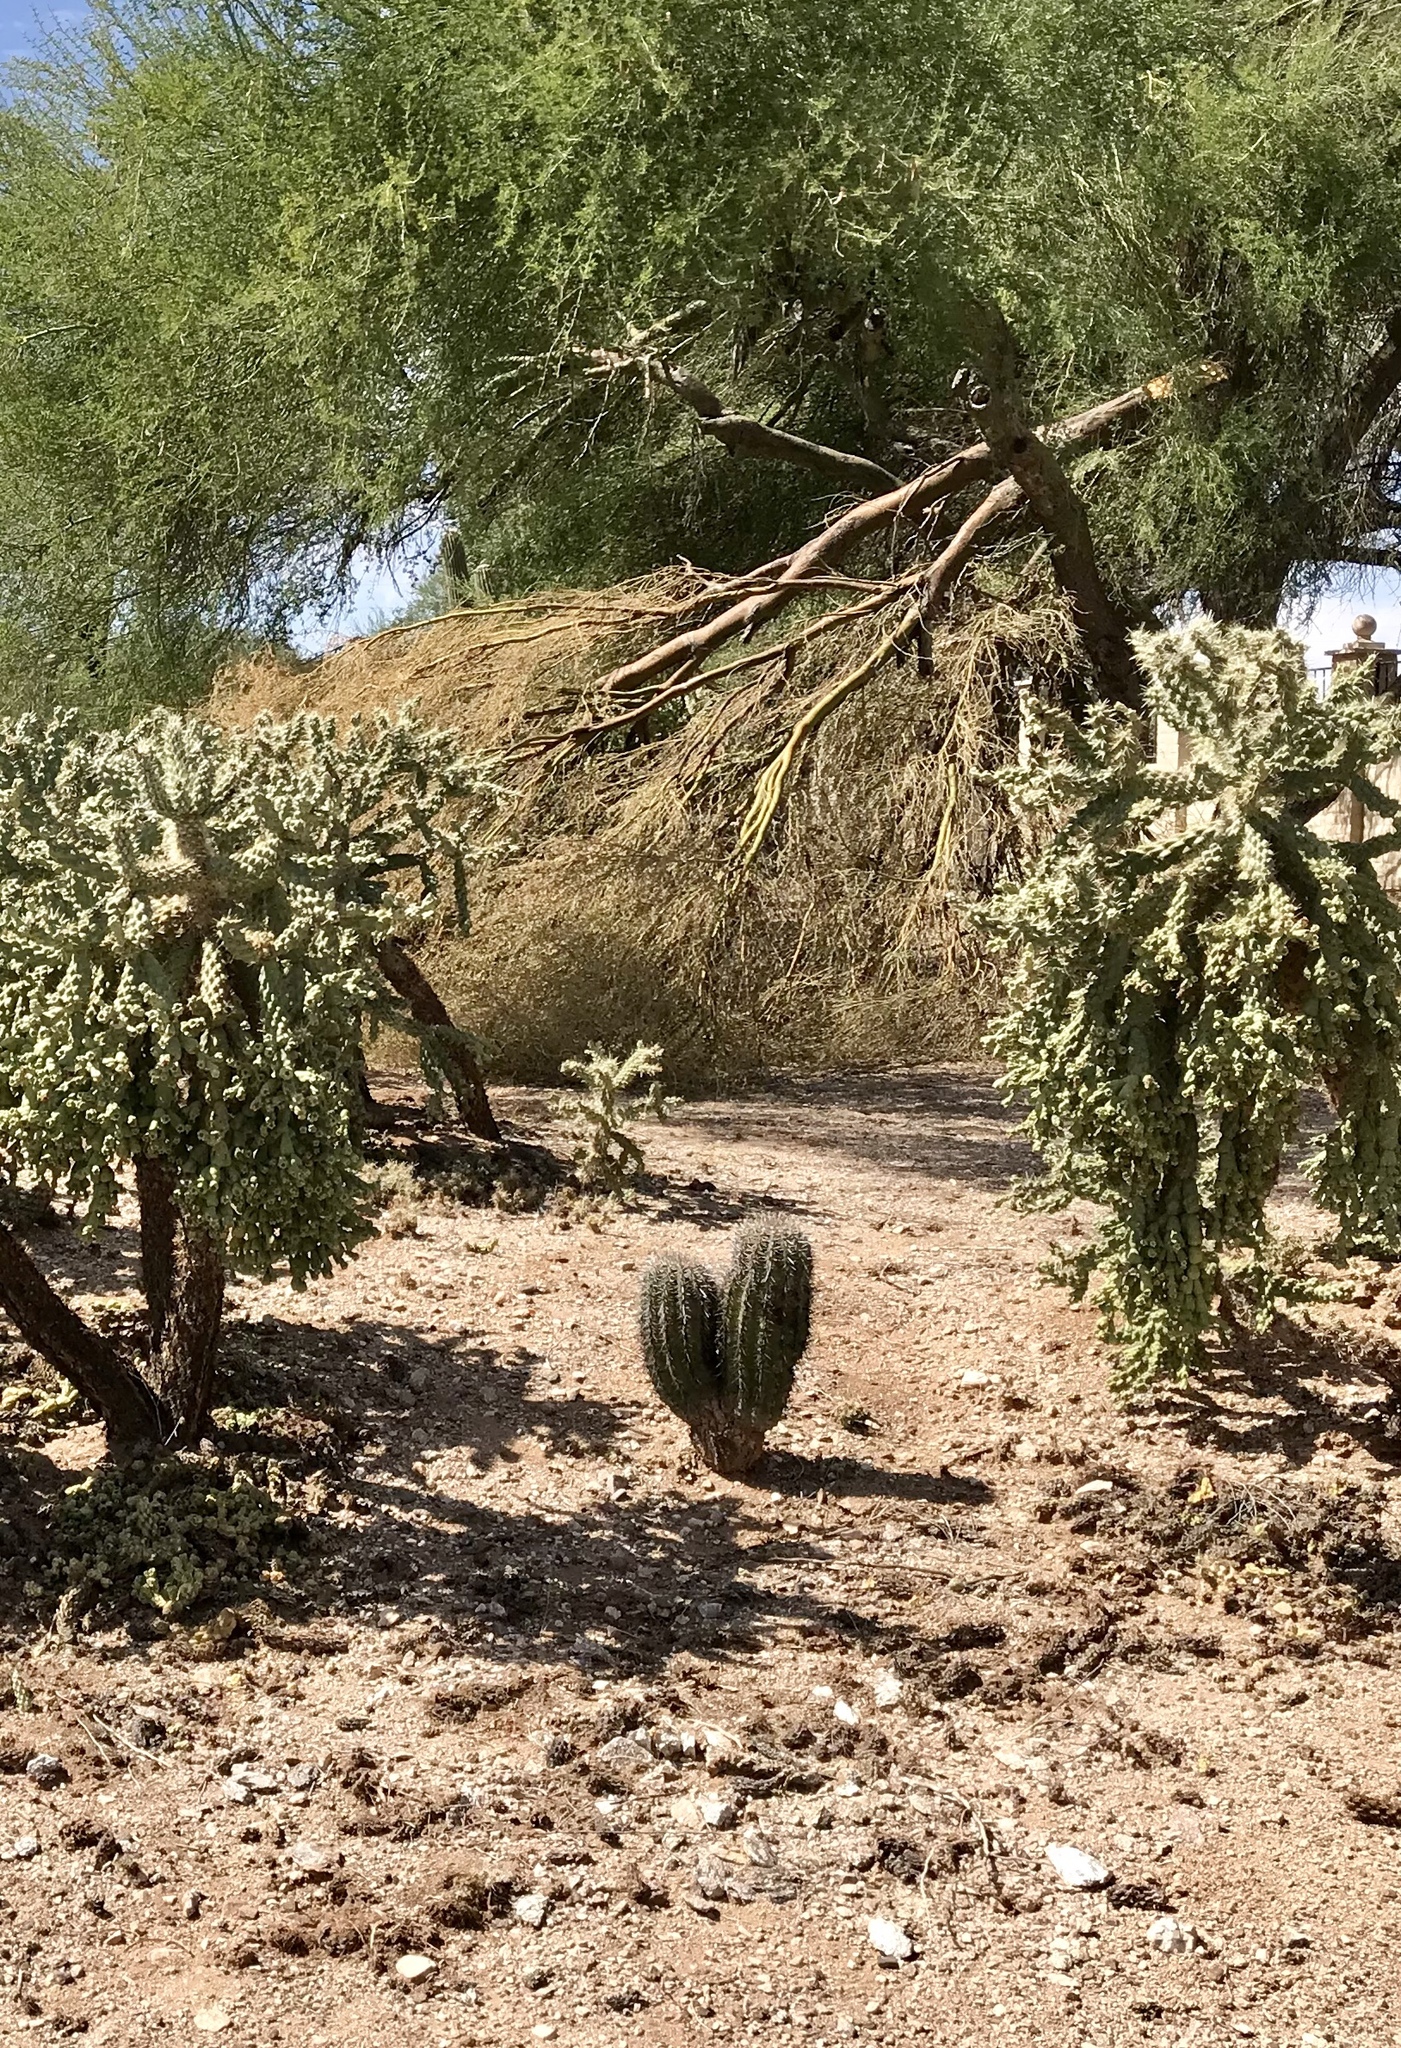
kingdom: Plantae
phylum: Tracheophyta
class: Magnoliopsida
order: Caryophyllales
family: Cactaceae
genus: Carnegiea
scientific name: Carnegiea gigantea
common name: Saguaro
